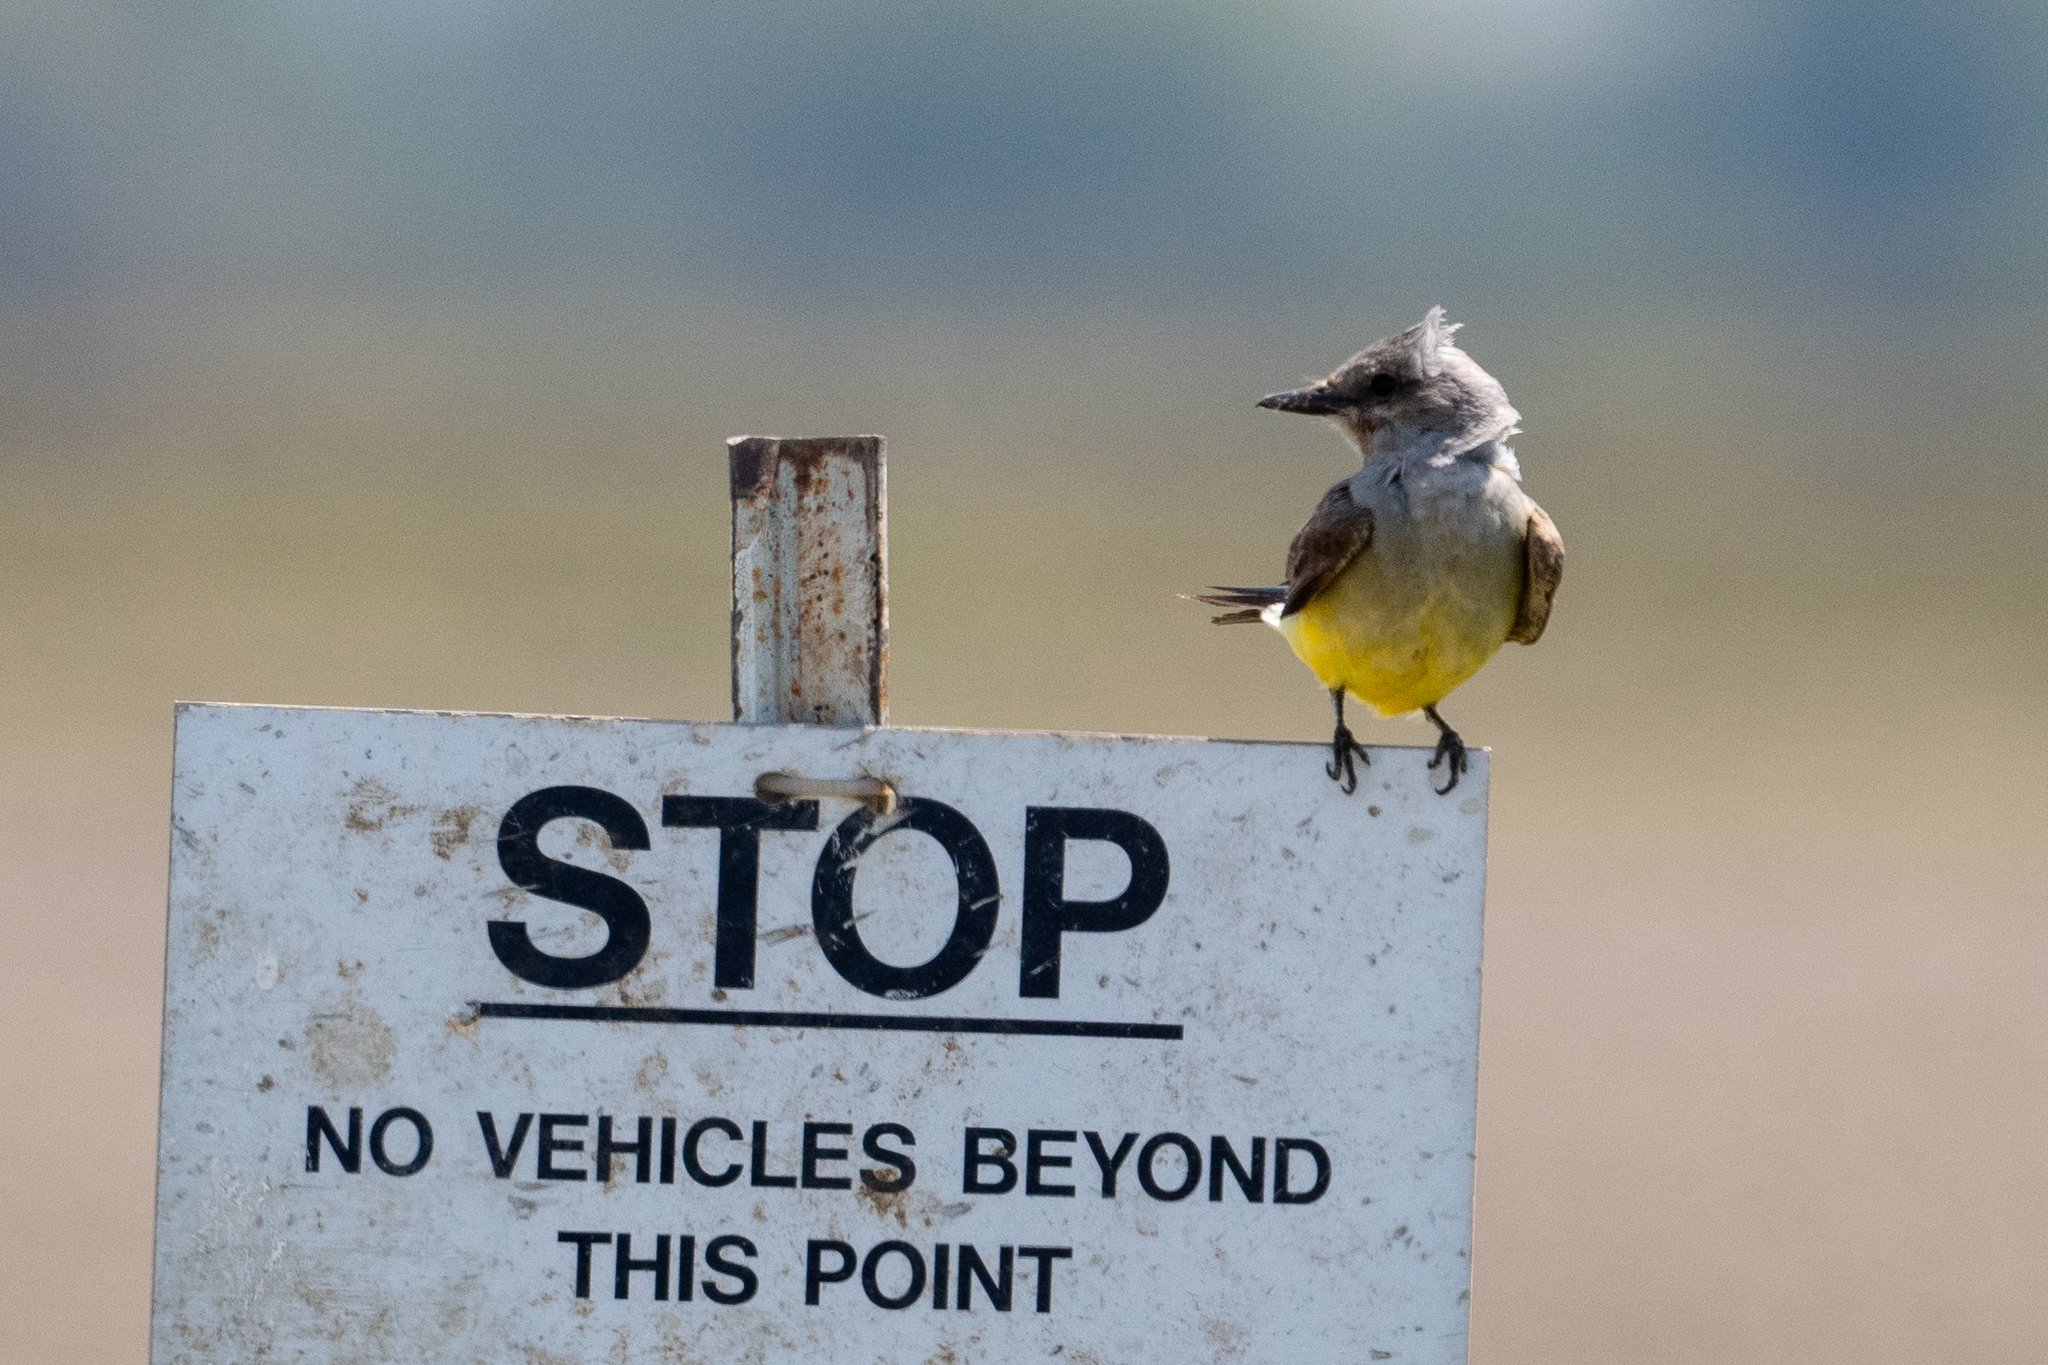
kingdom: Animalia
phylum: Chordata
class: Aves
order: Passeriformes
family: Tyrannidae
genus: Tyrannus
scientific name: Tyrannus verticalis
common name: Western kingbird
